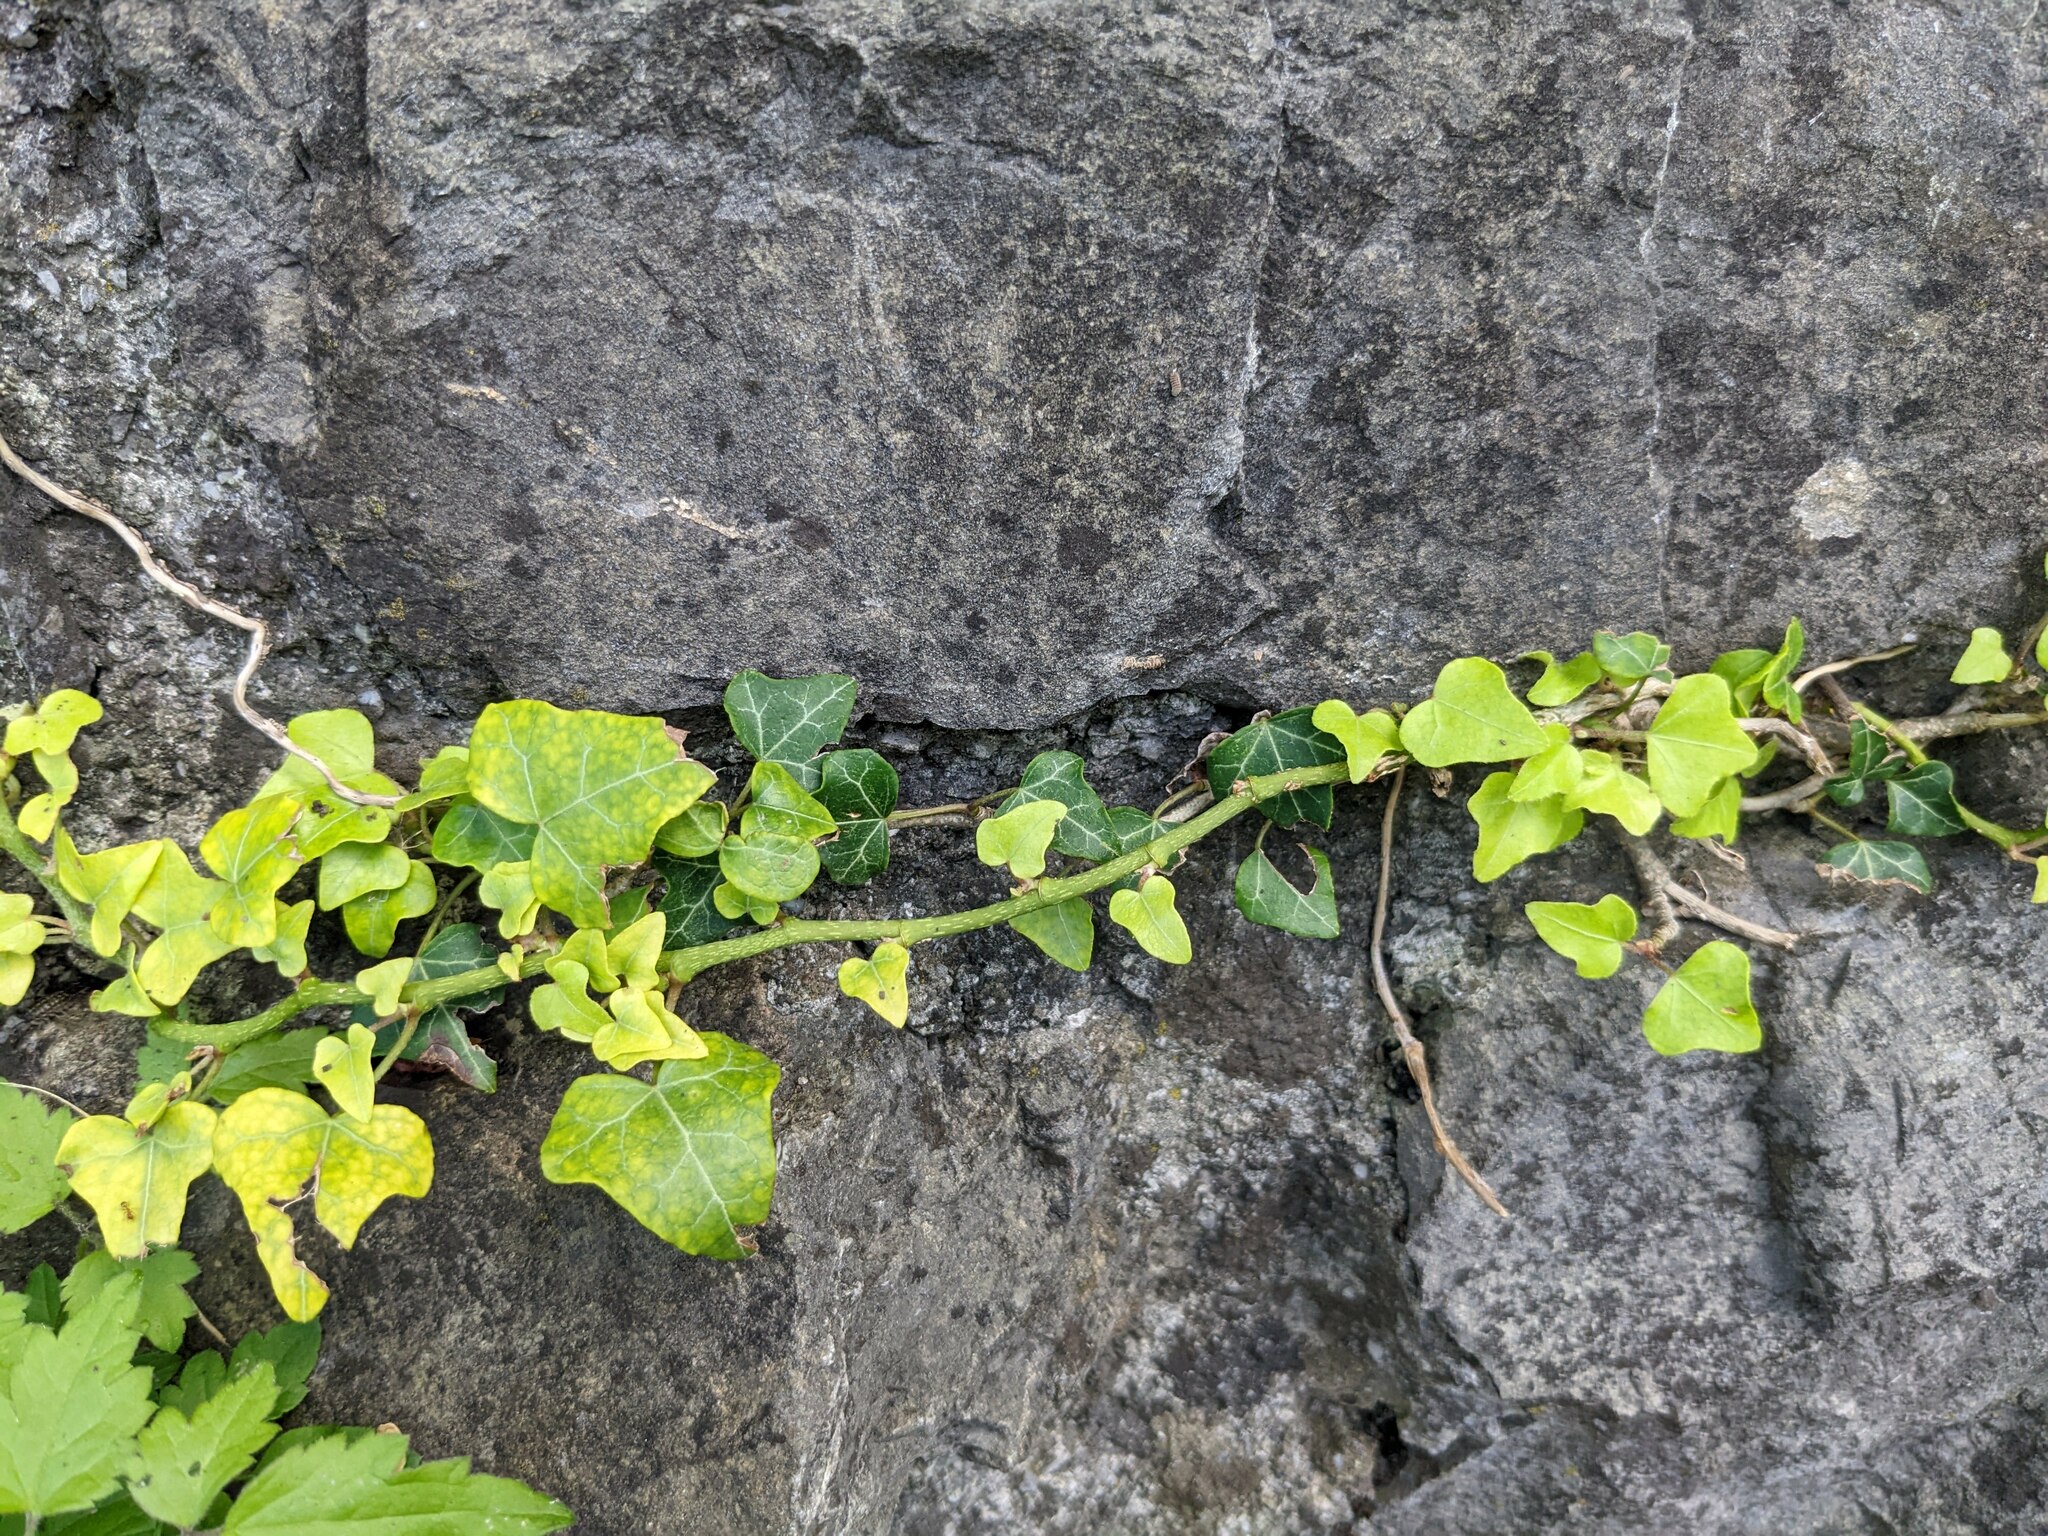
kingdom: Plantae
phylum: Tracheophyta
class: Magnoliopsida
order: Apiales
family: Araliaceae
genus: Hedera
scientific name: Hedera helix
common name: Ivy
